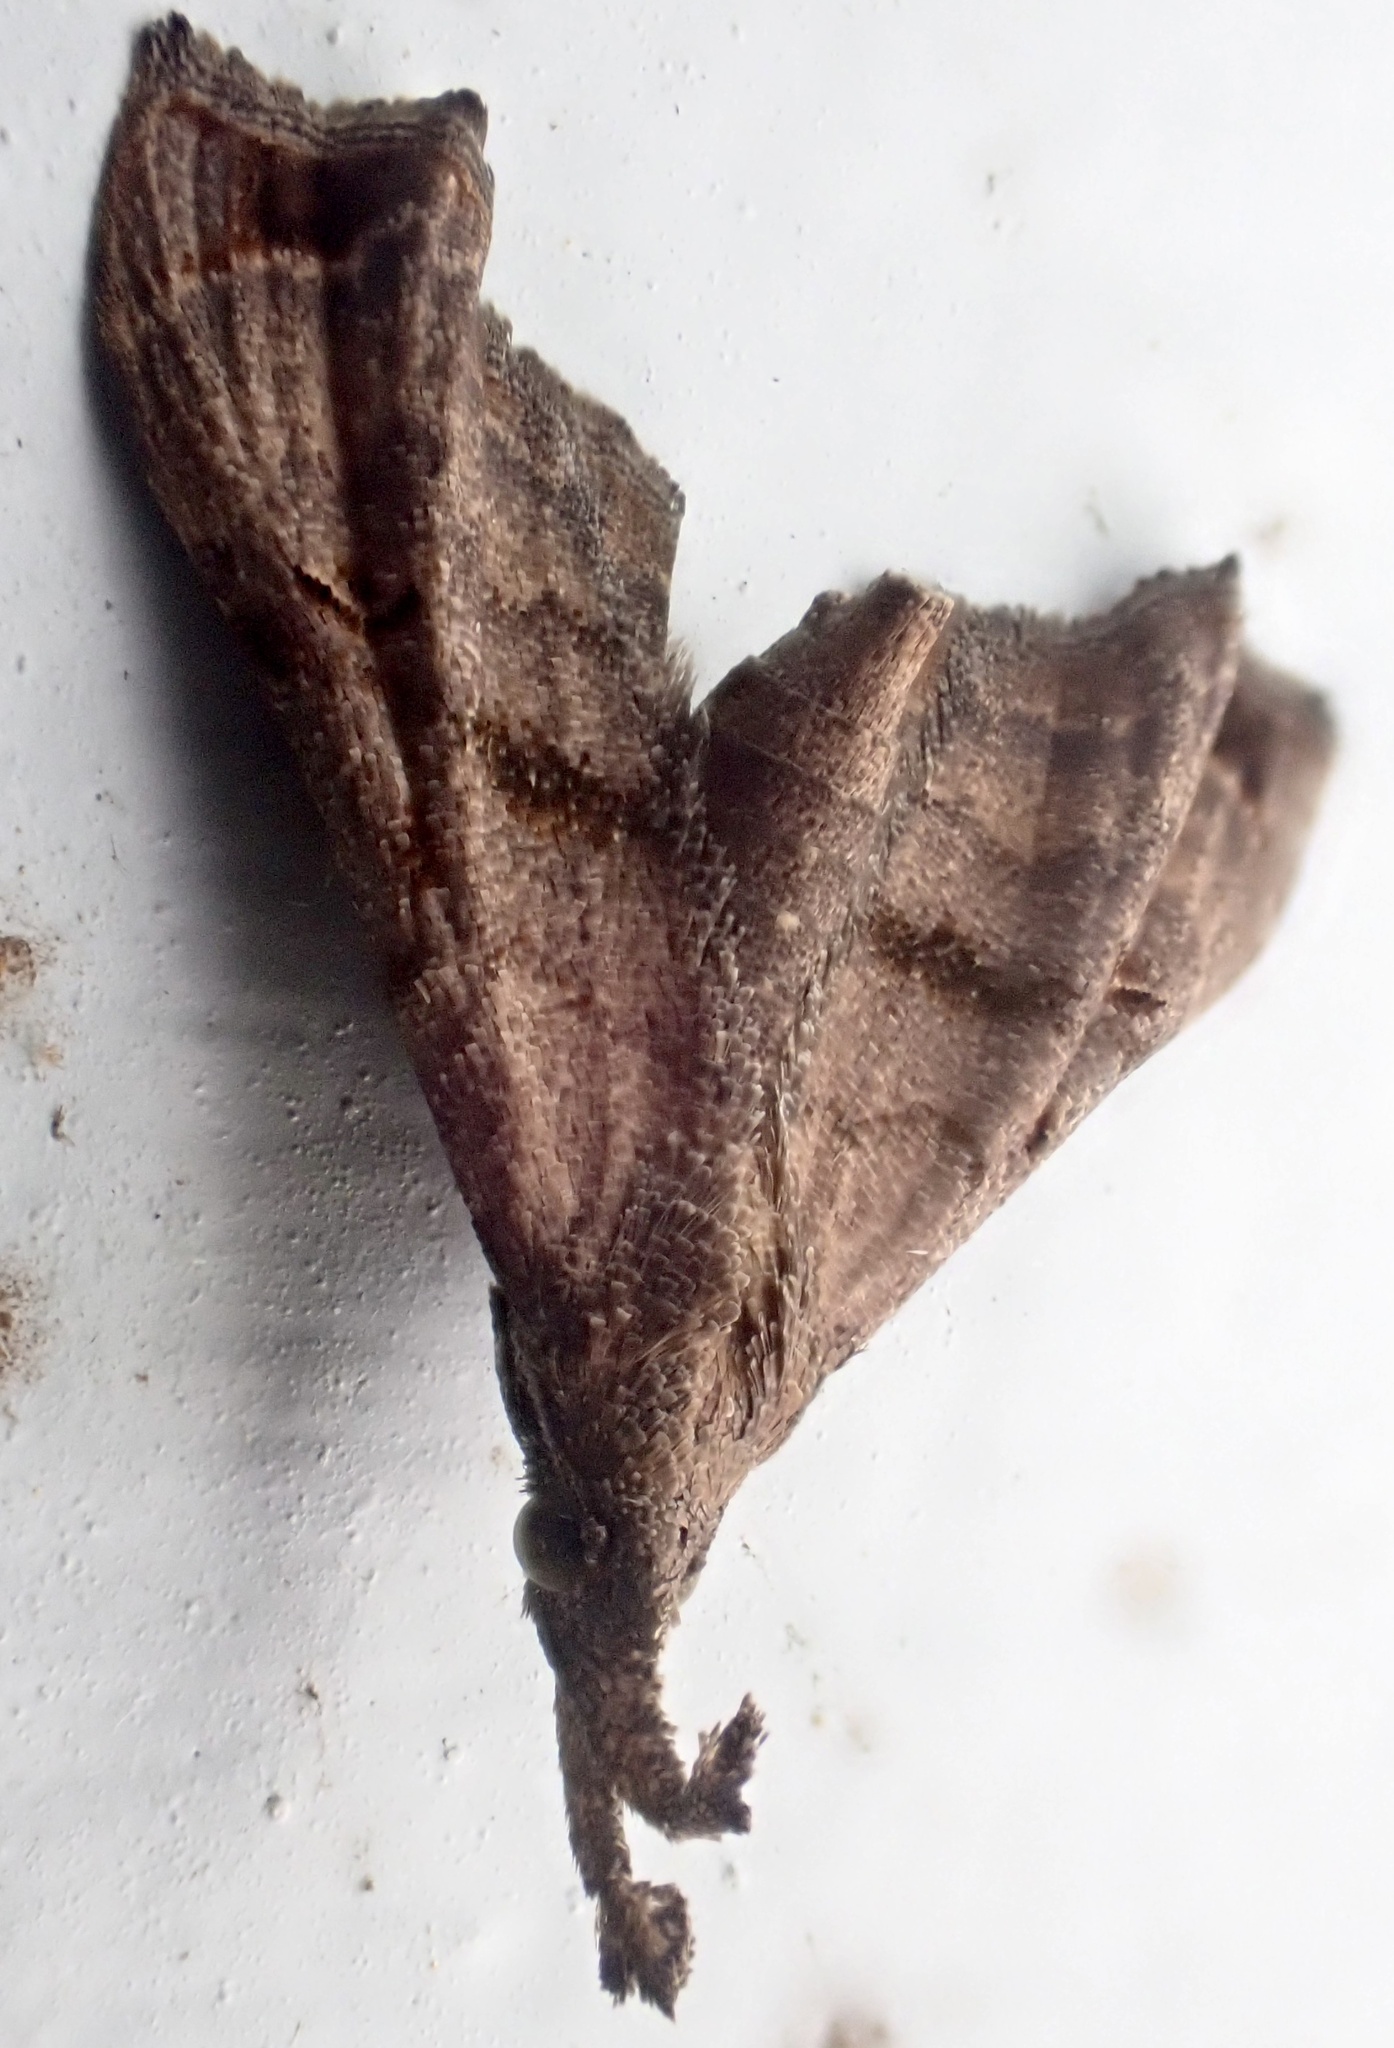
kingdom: Animalia
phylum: Arthropoda
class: Insecta
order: Lepidoptera
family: Erebidae
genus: Palthis
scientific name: Palthis asopialis
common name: Faint-spotted palthis moth
